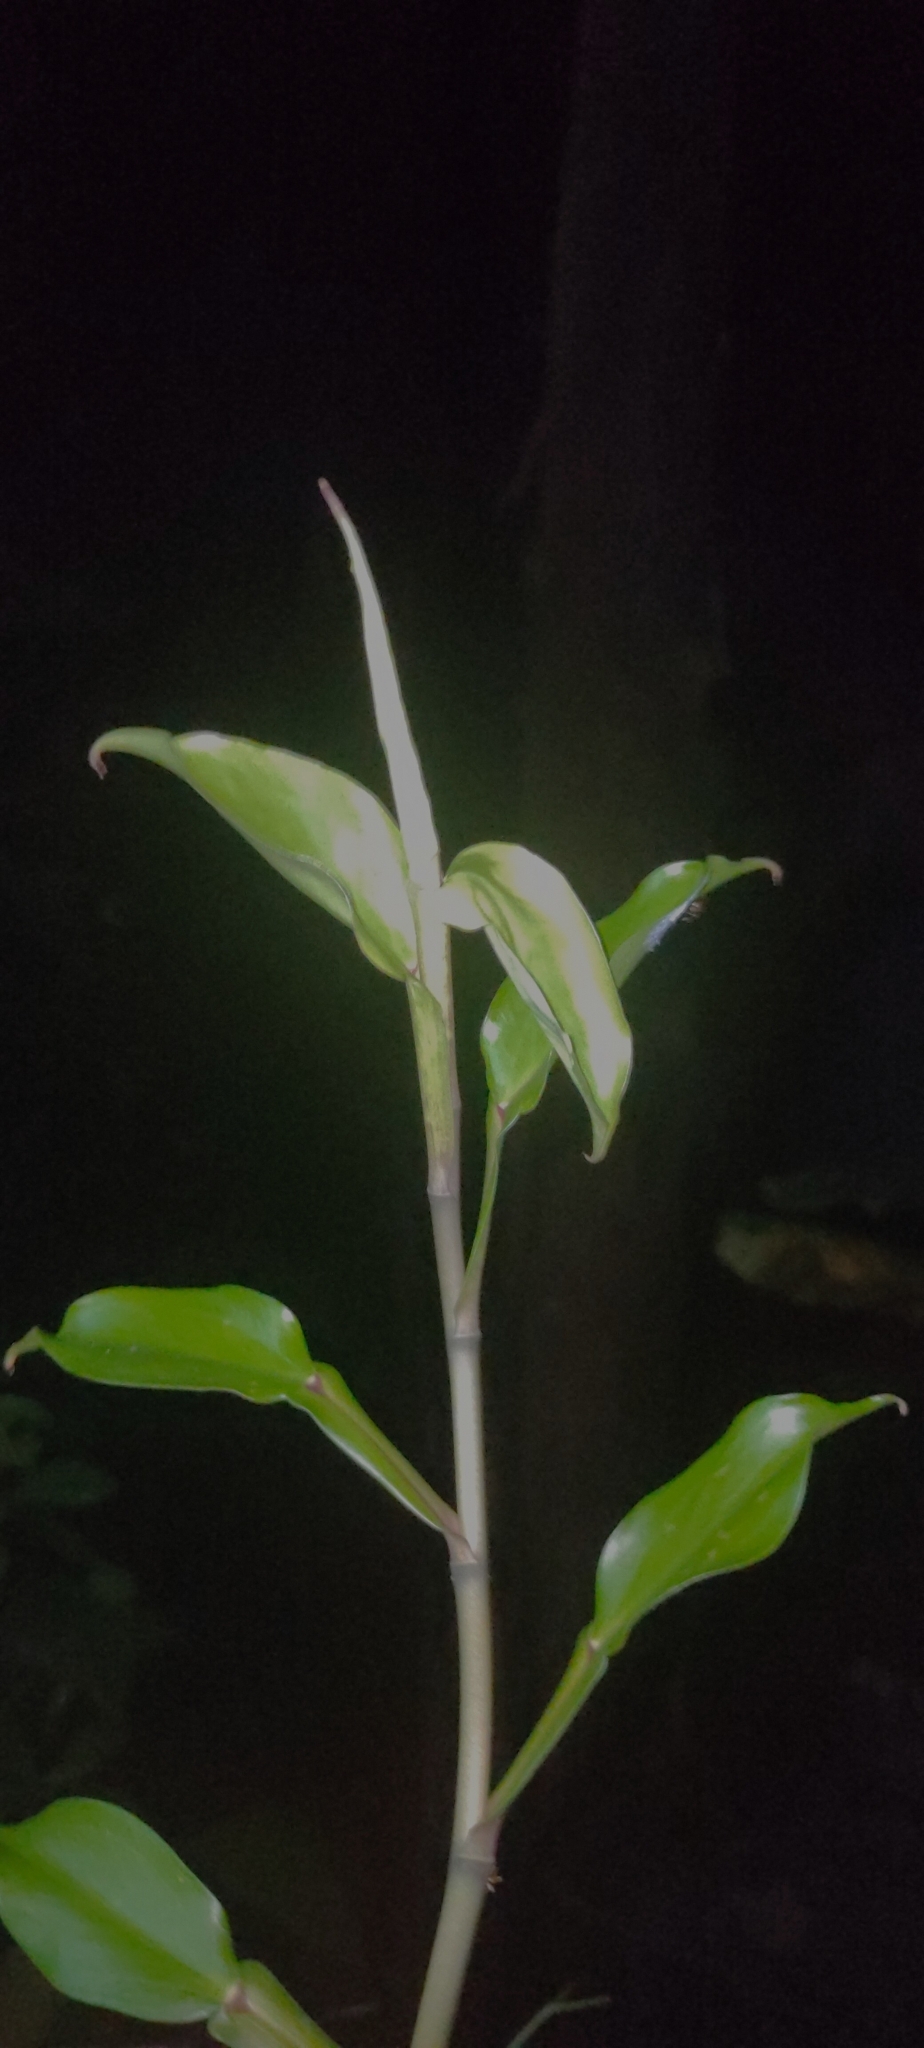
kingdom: Plantae
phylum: Tracheophyta
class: Liliopsida
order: Alismatales
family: Araceae
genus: Pothos
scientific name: Pothos scandens
